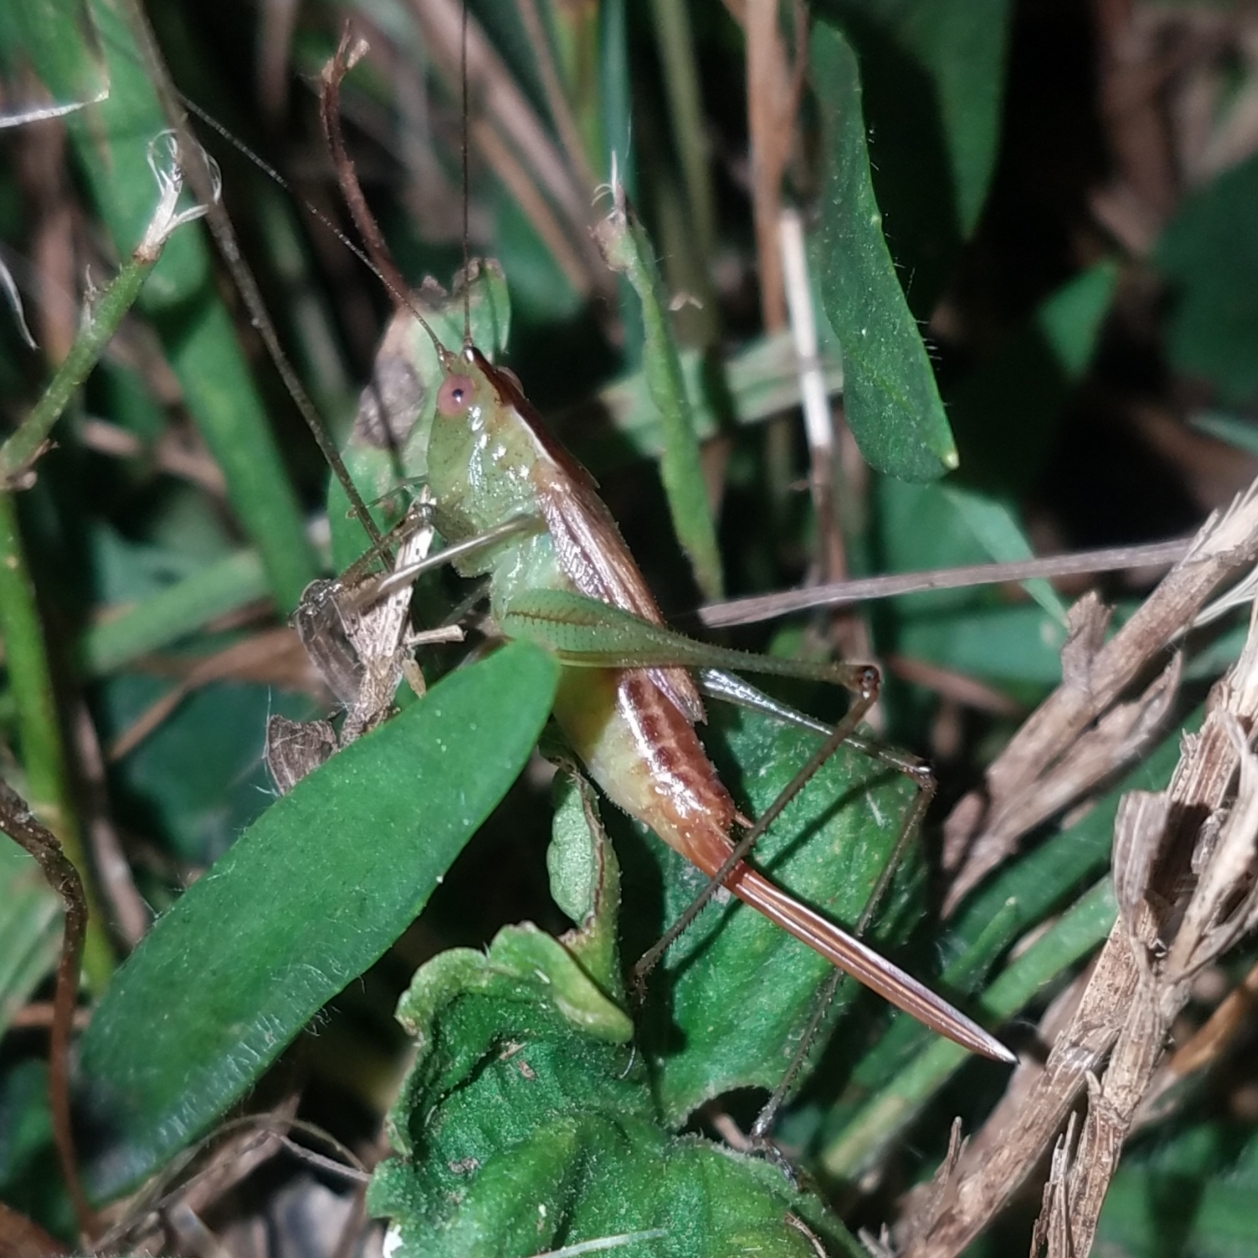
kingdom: Animalia
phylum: Arthropoda
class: Insecta
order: Orthoptera
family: Tettigoniidae
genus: Conocephalus
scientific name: Conocephalus brevipennis
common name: Short-winged meadow katydid
